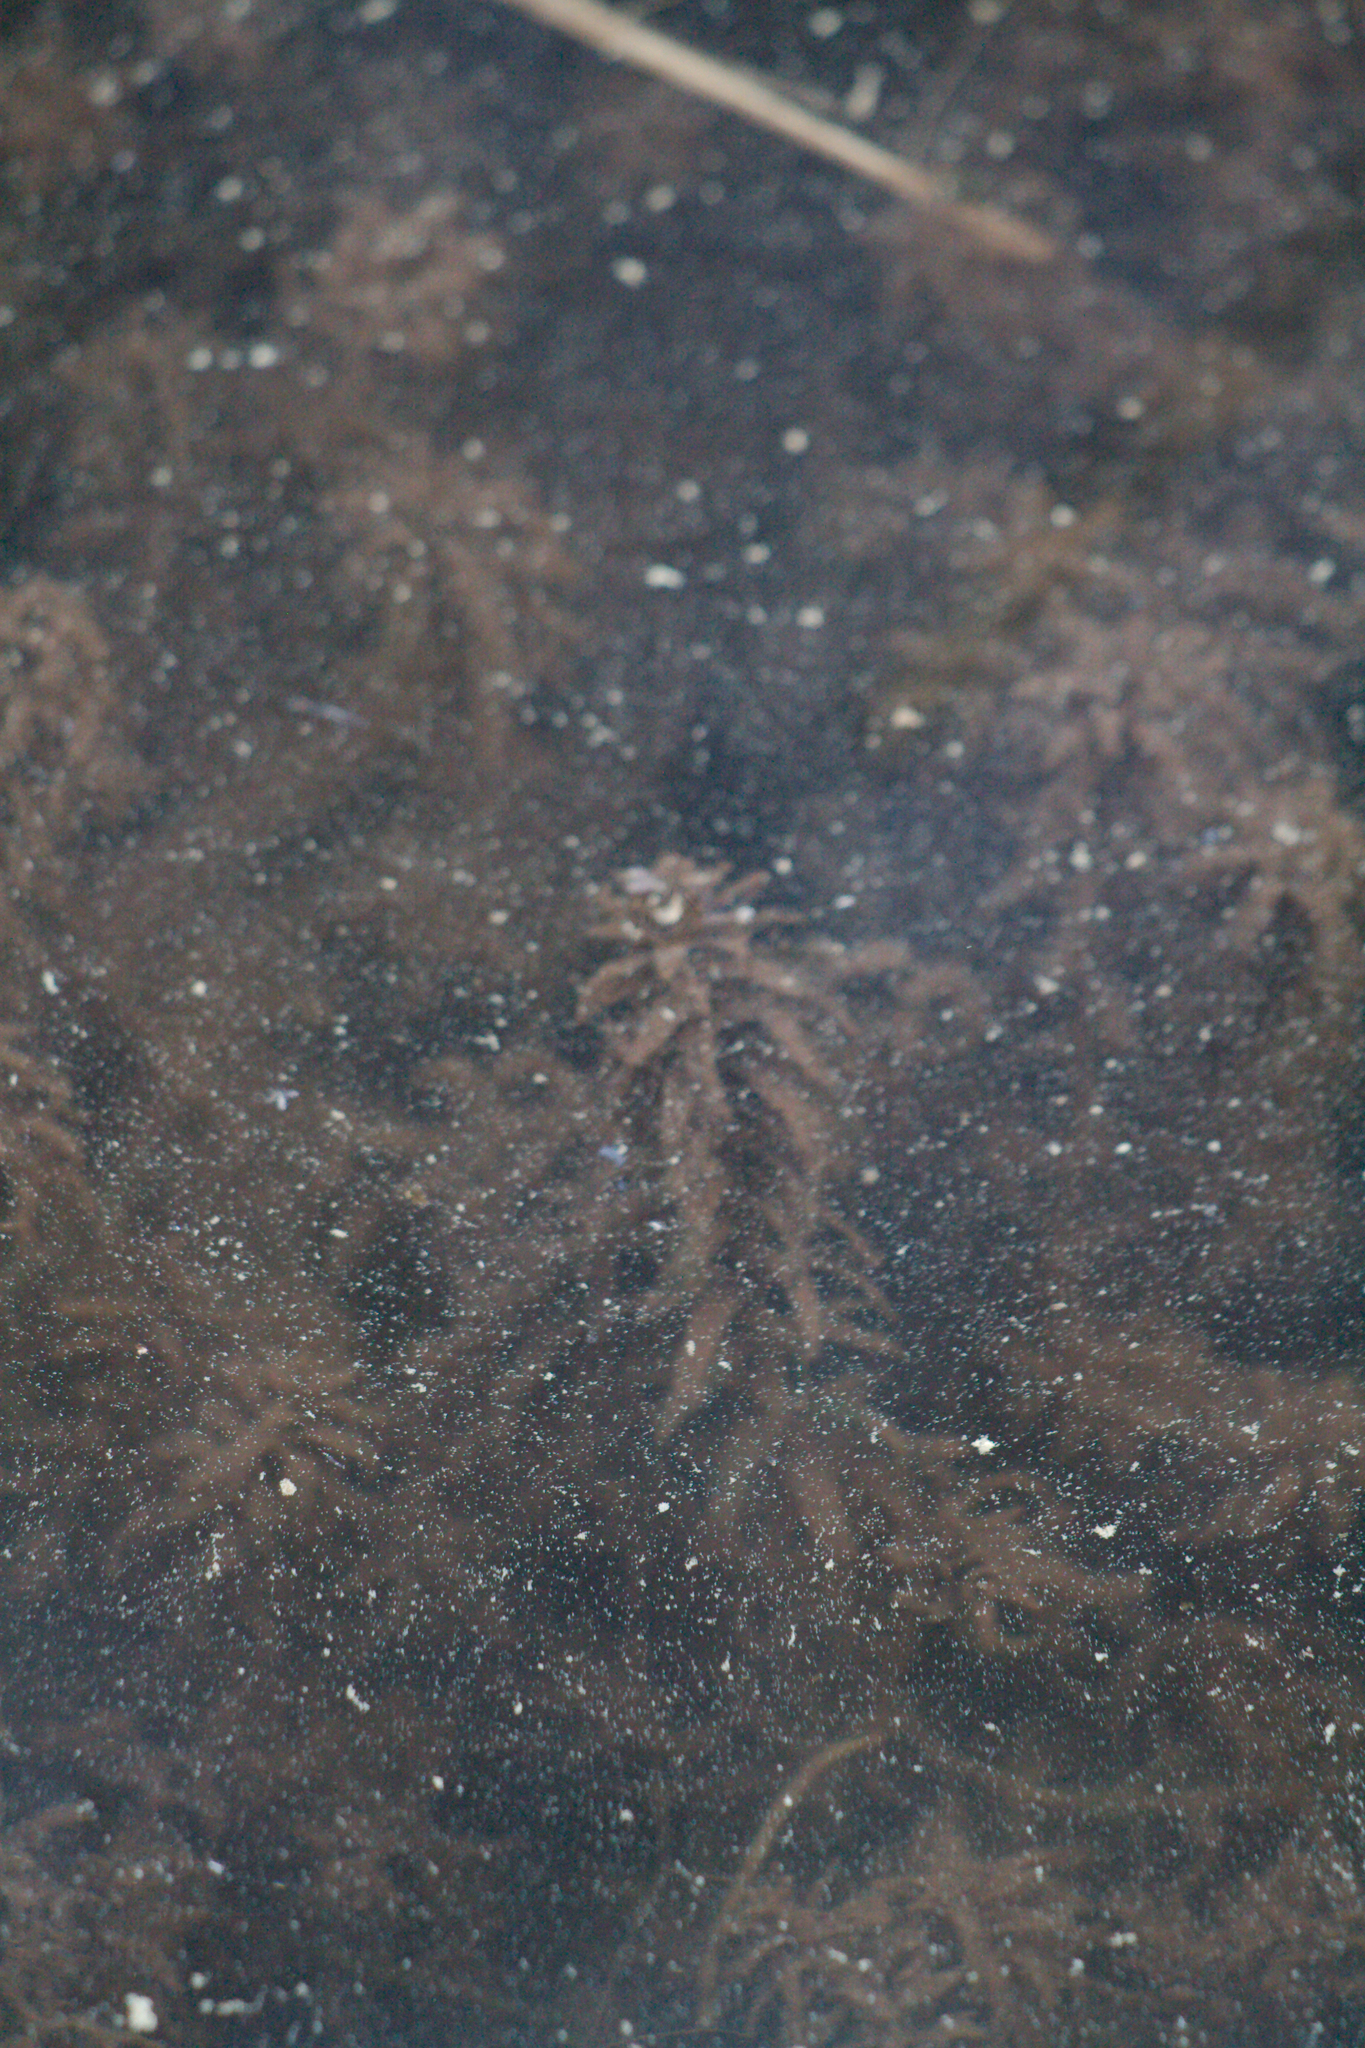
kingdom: Plantae
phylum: Tracheophyta
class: Liliopsida
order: Alismatales
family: Hydrocharitaceae
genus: Elodea
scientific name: Elodea canadensis
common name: Canadian waterweed
